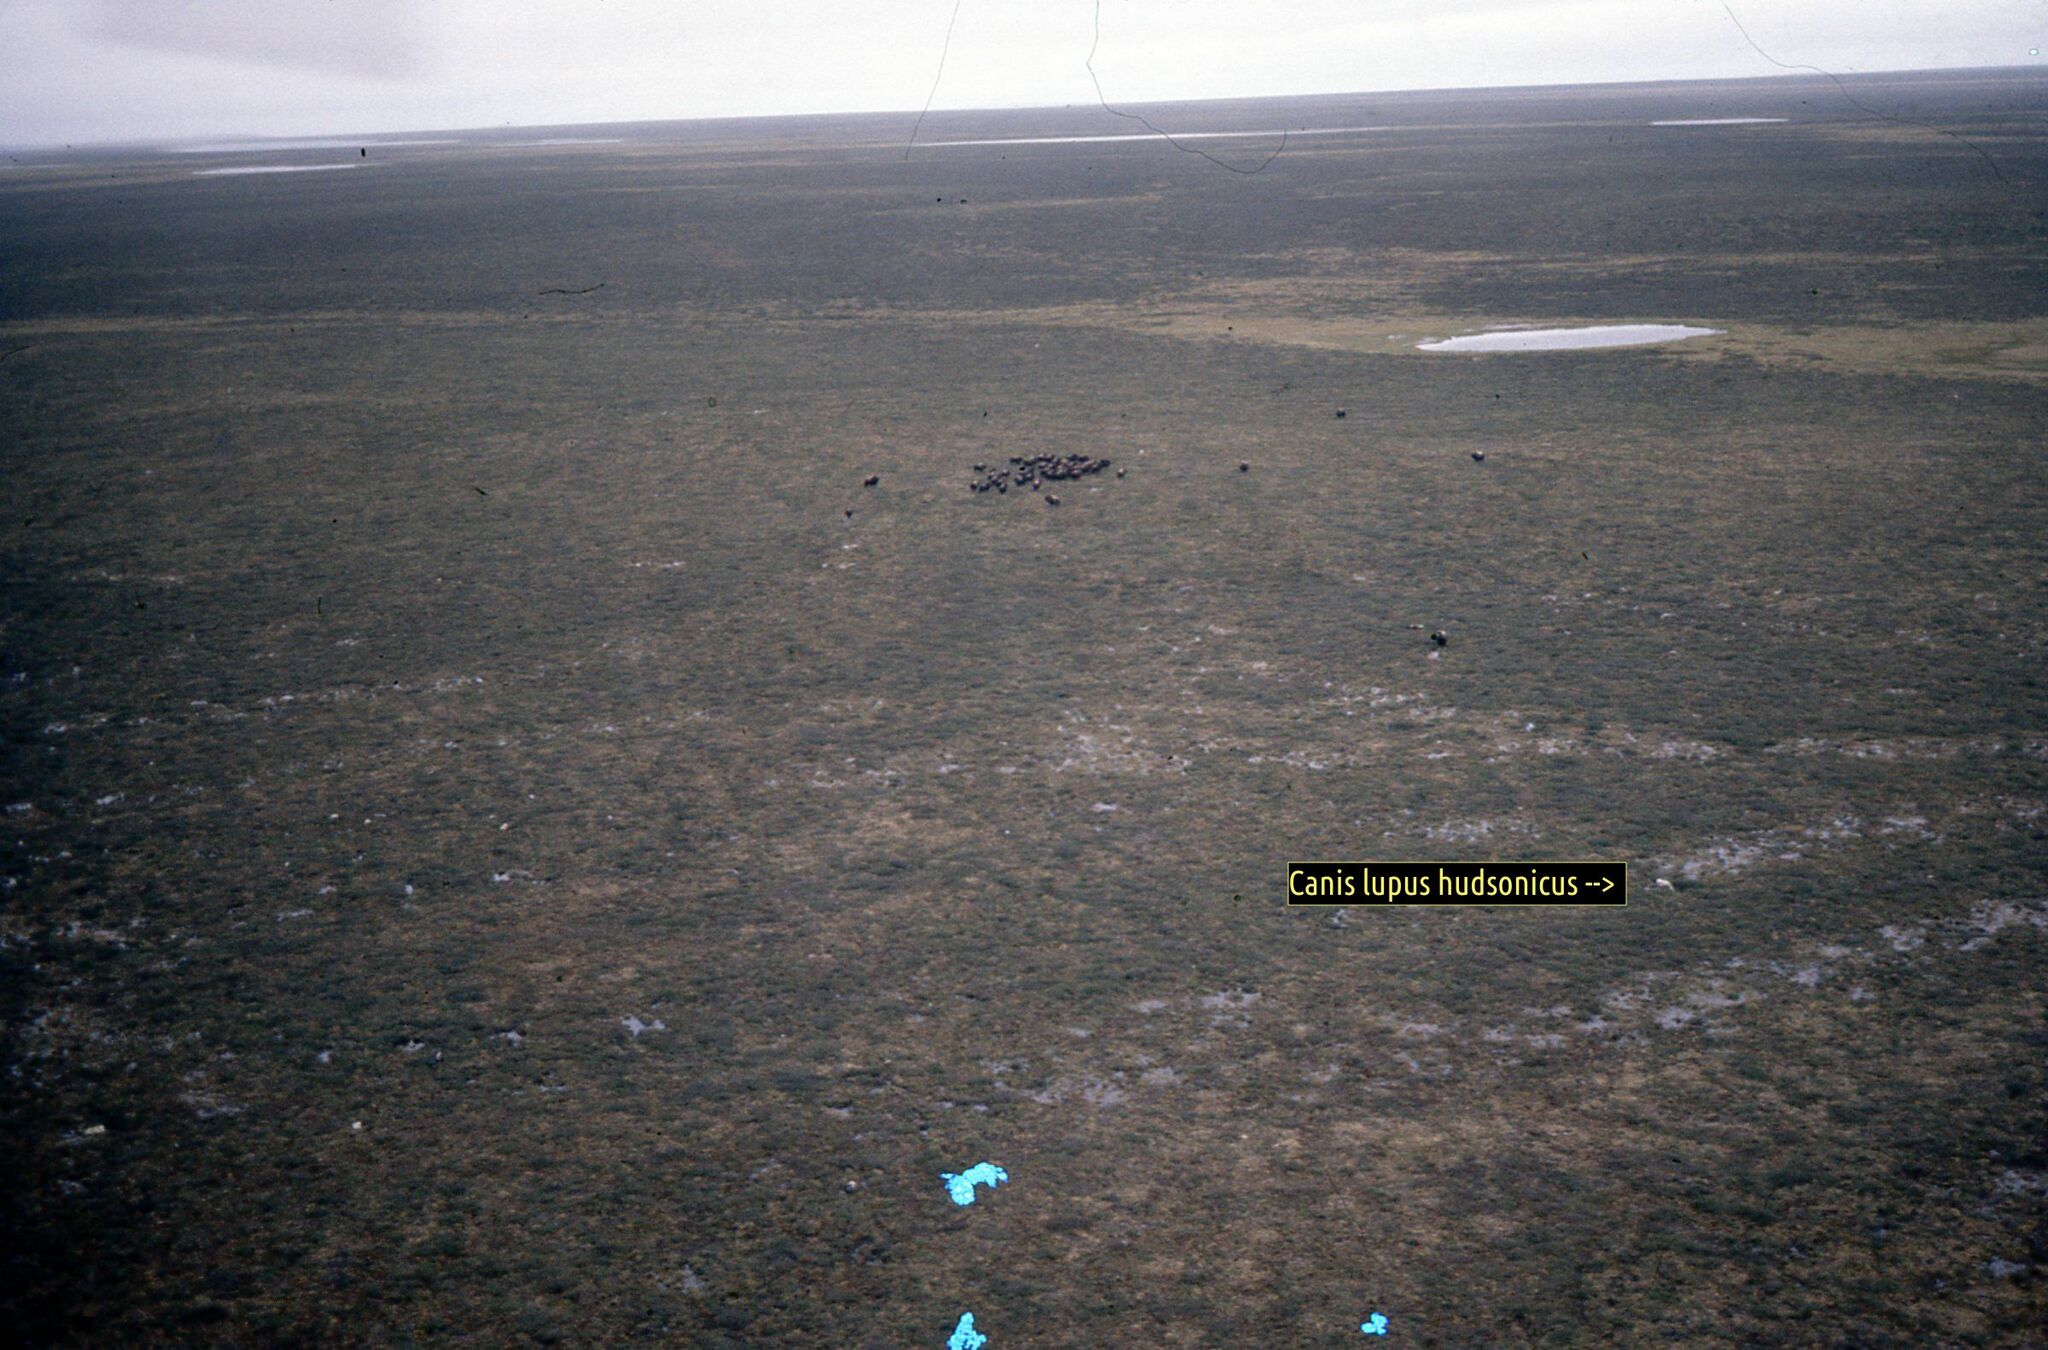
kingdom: Animalia
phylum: Chordata
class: Mammalia
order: Artiodactyla
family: Bovidae
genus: Ovibos
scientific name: Ovibos moschatus
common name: Muskox
